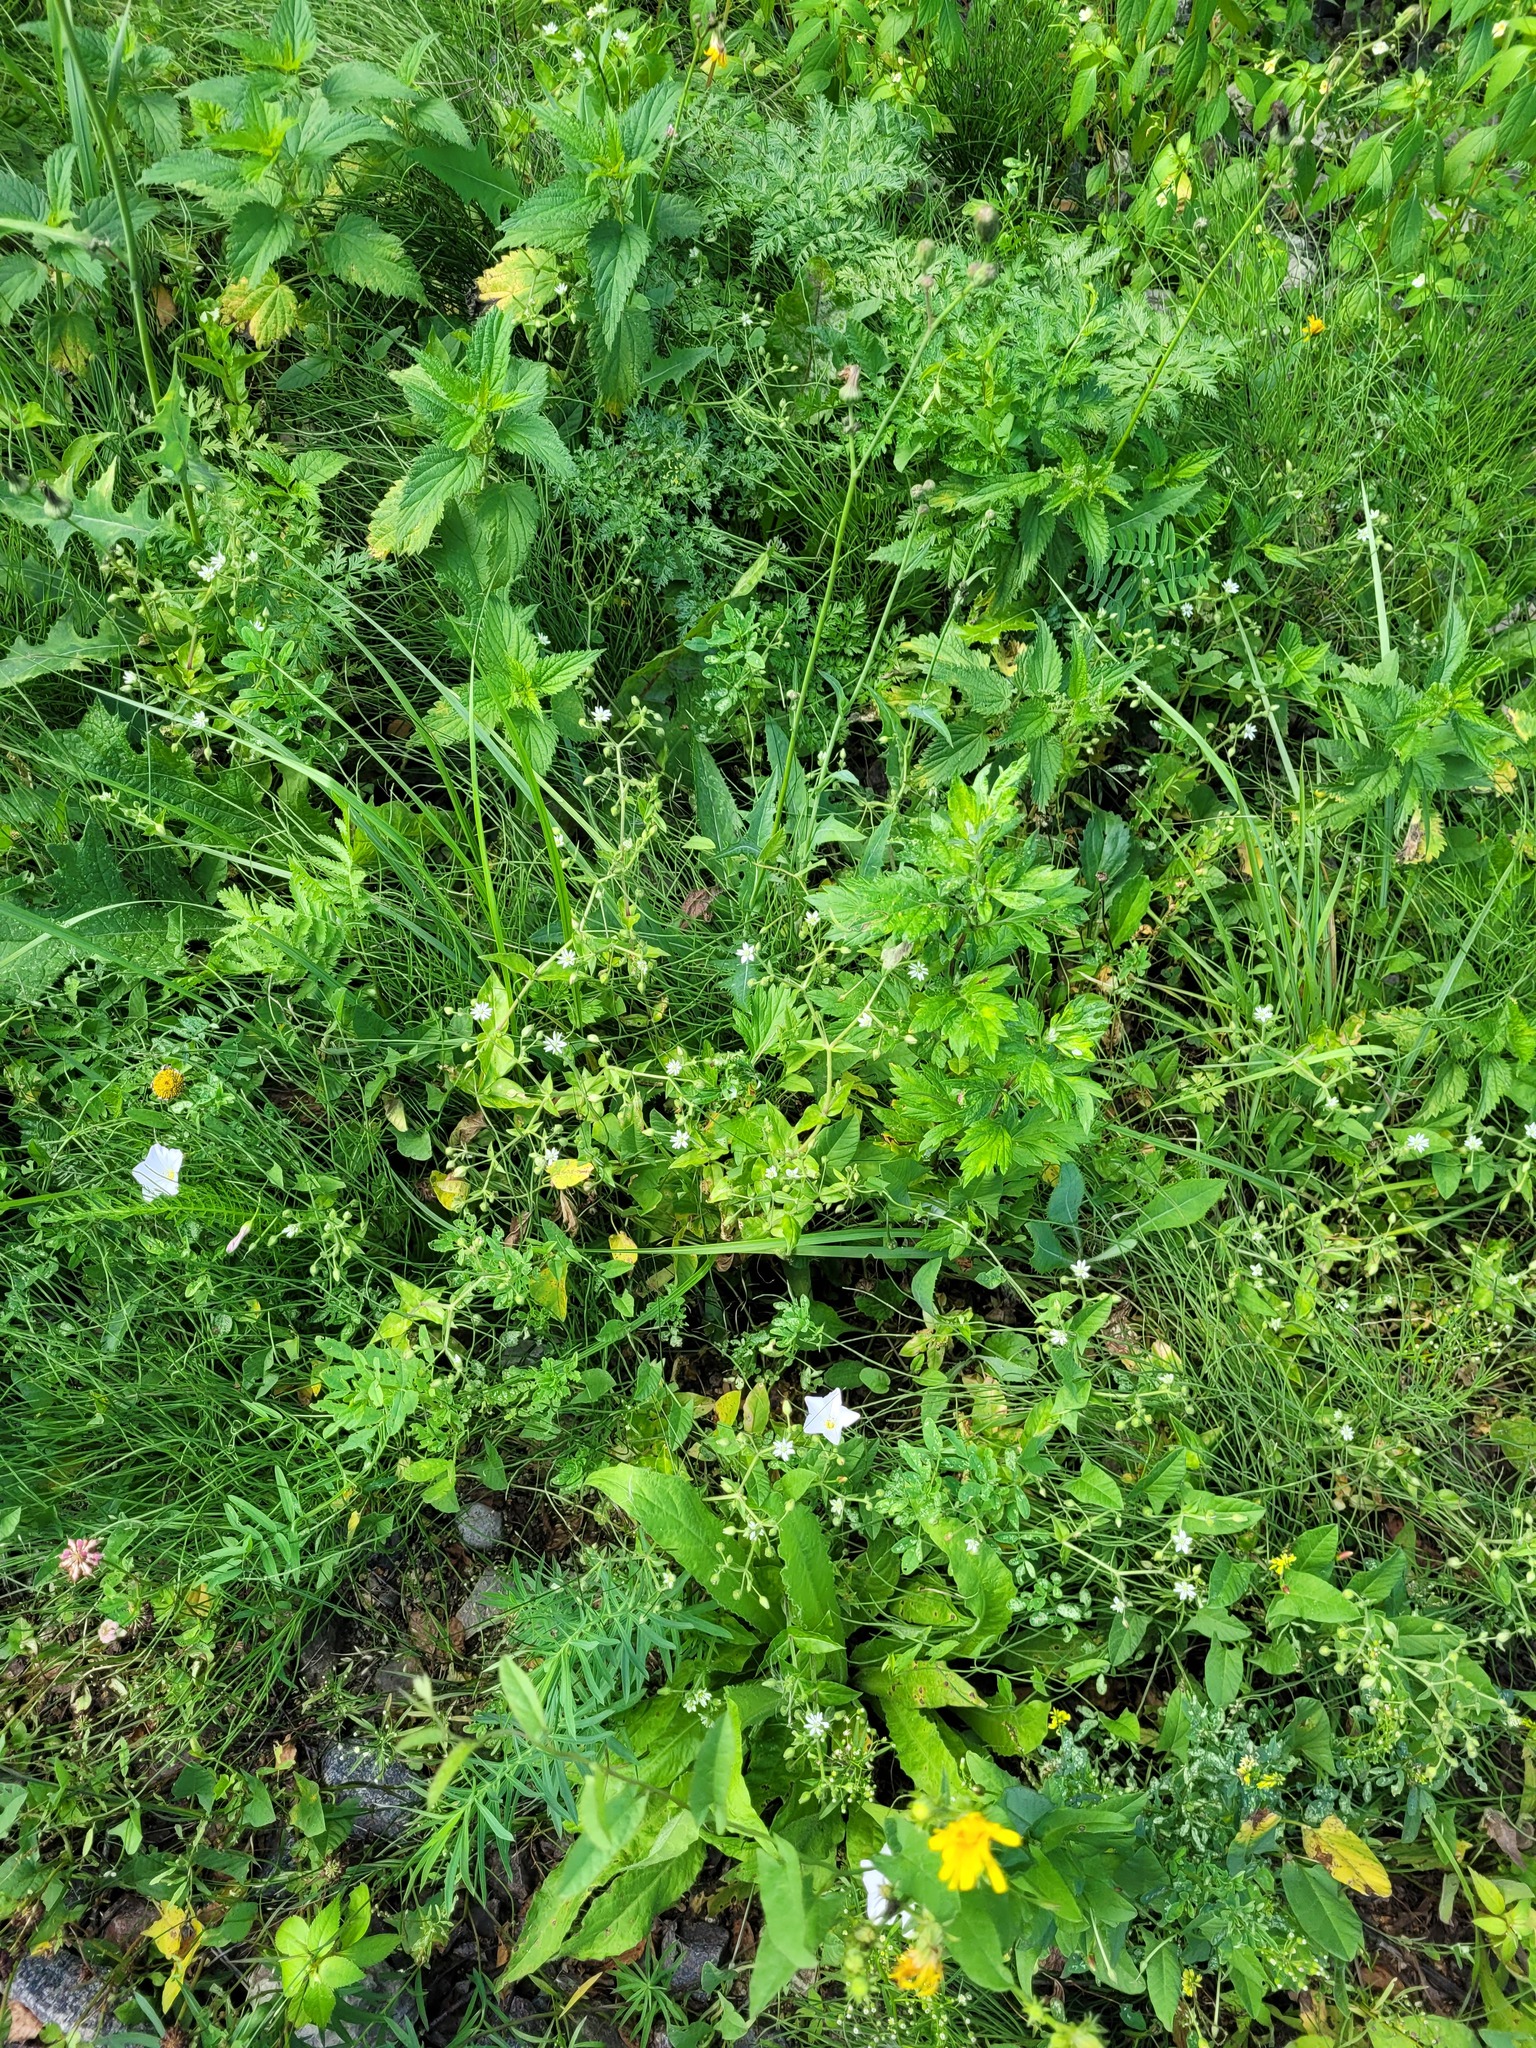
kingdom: Plantae
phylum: Tracheophyta
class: Magnoliopsida
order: Caryophyllales
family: Caryophyllaceae
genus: Stellaria
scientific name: Stellaria aquatica
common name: Water chickweed
